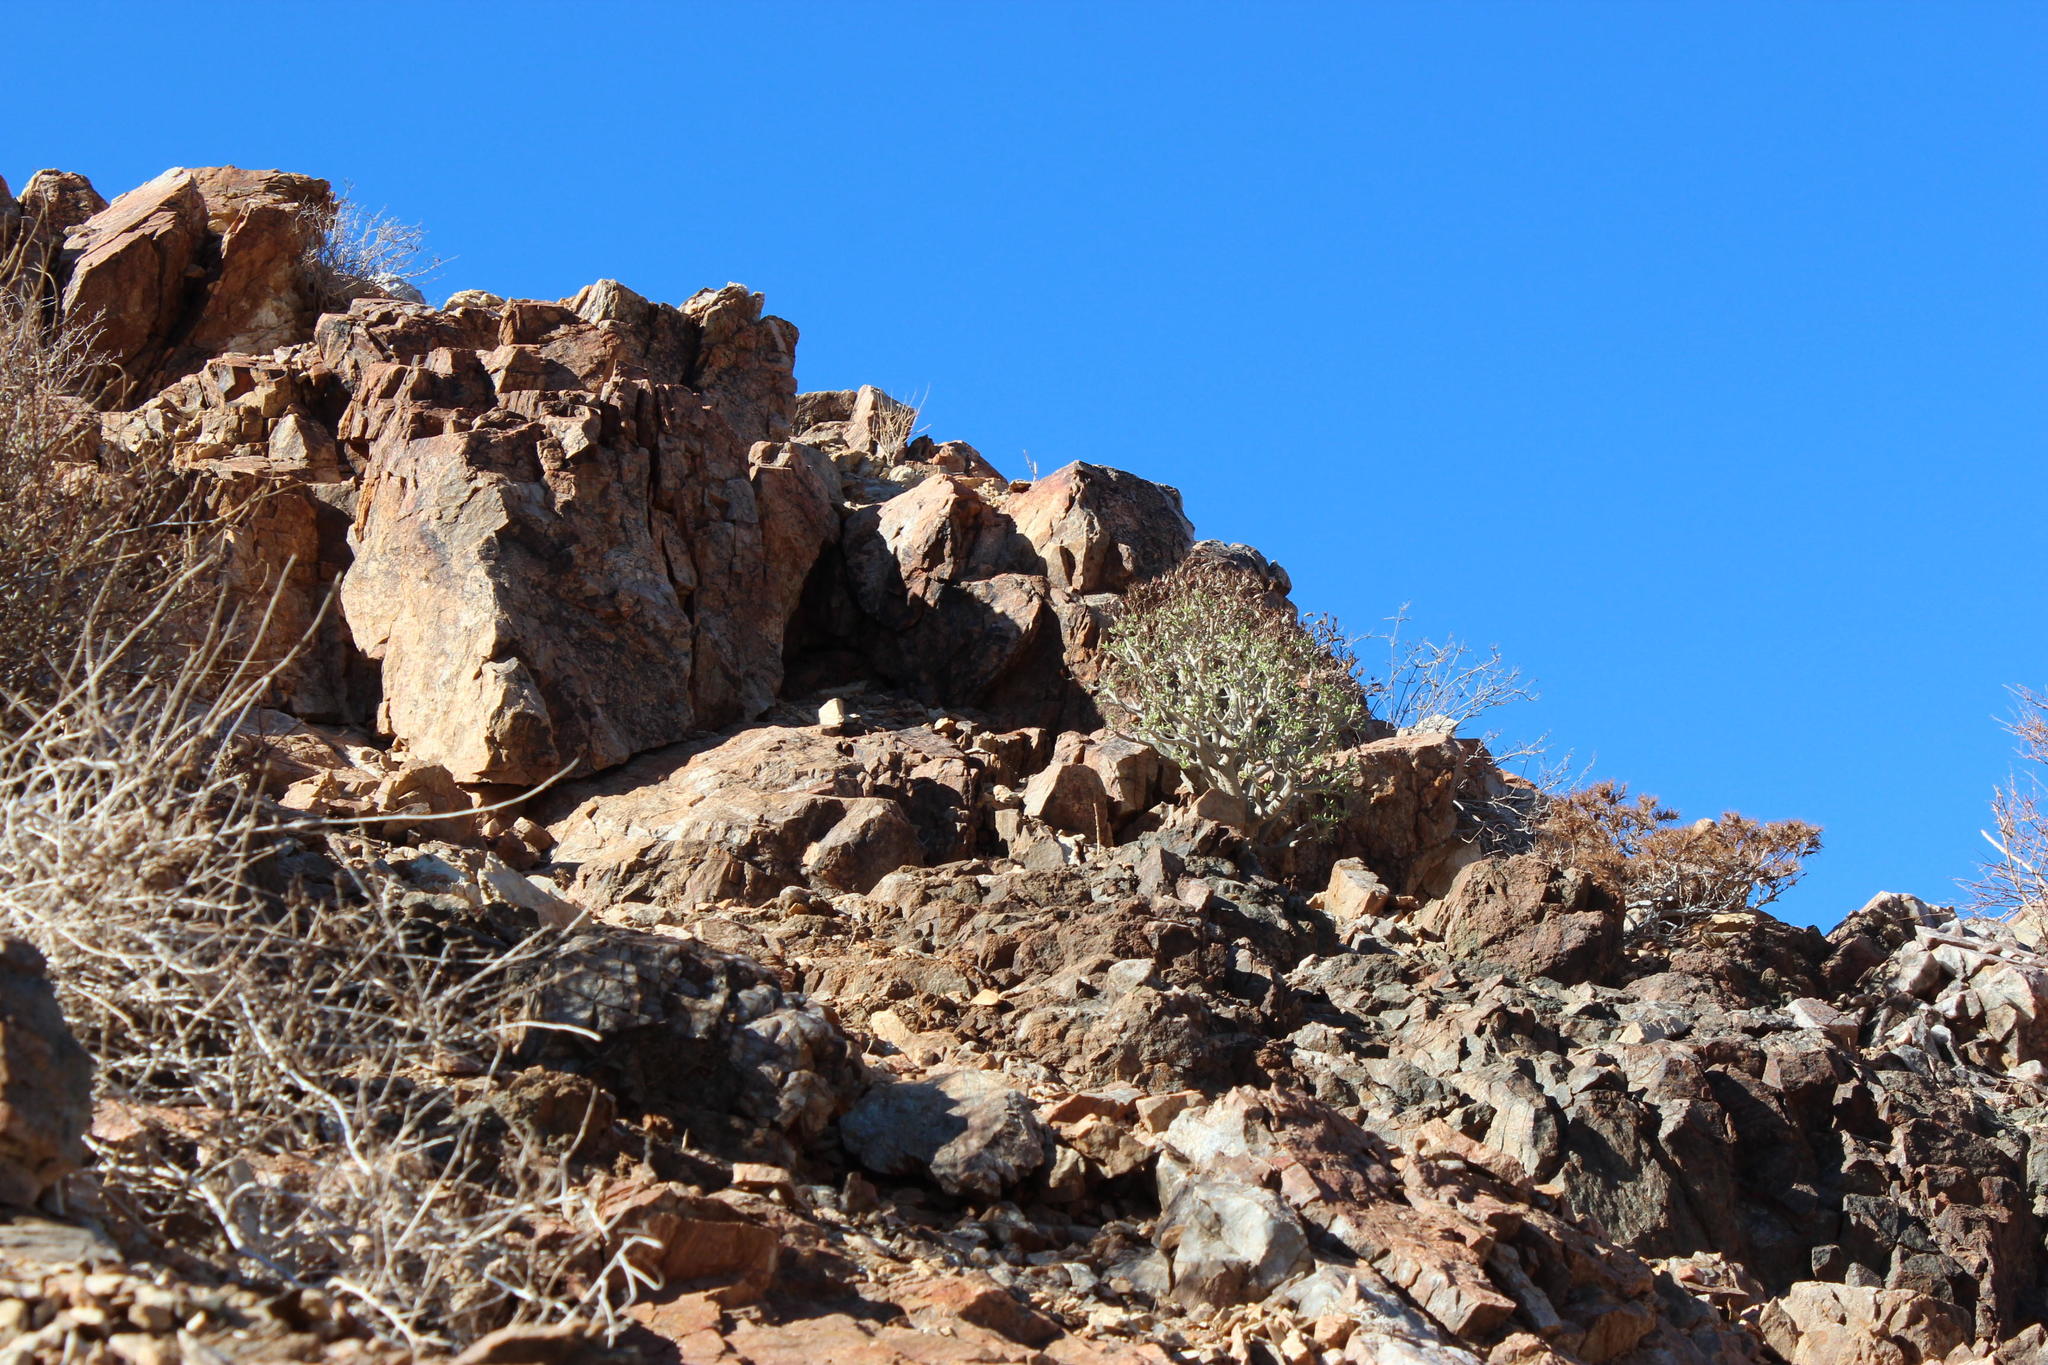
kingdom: Plantae
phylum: Tracheophyta
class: Magnoliopsida
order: Saxifragales
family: Crassulaceae
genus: Tylecodon
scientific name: Tylecodon hallii
